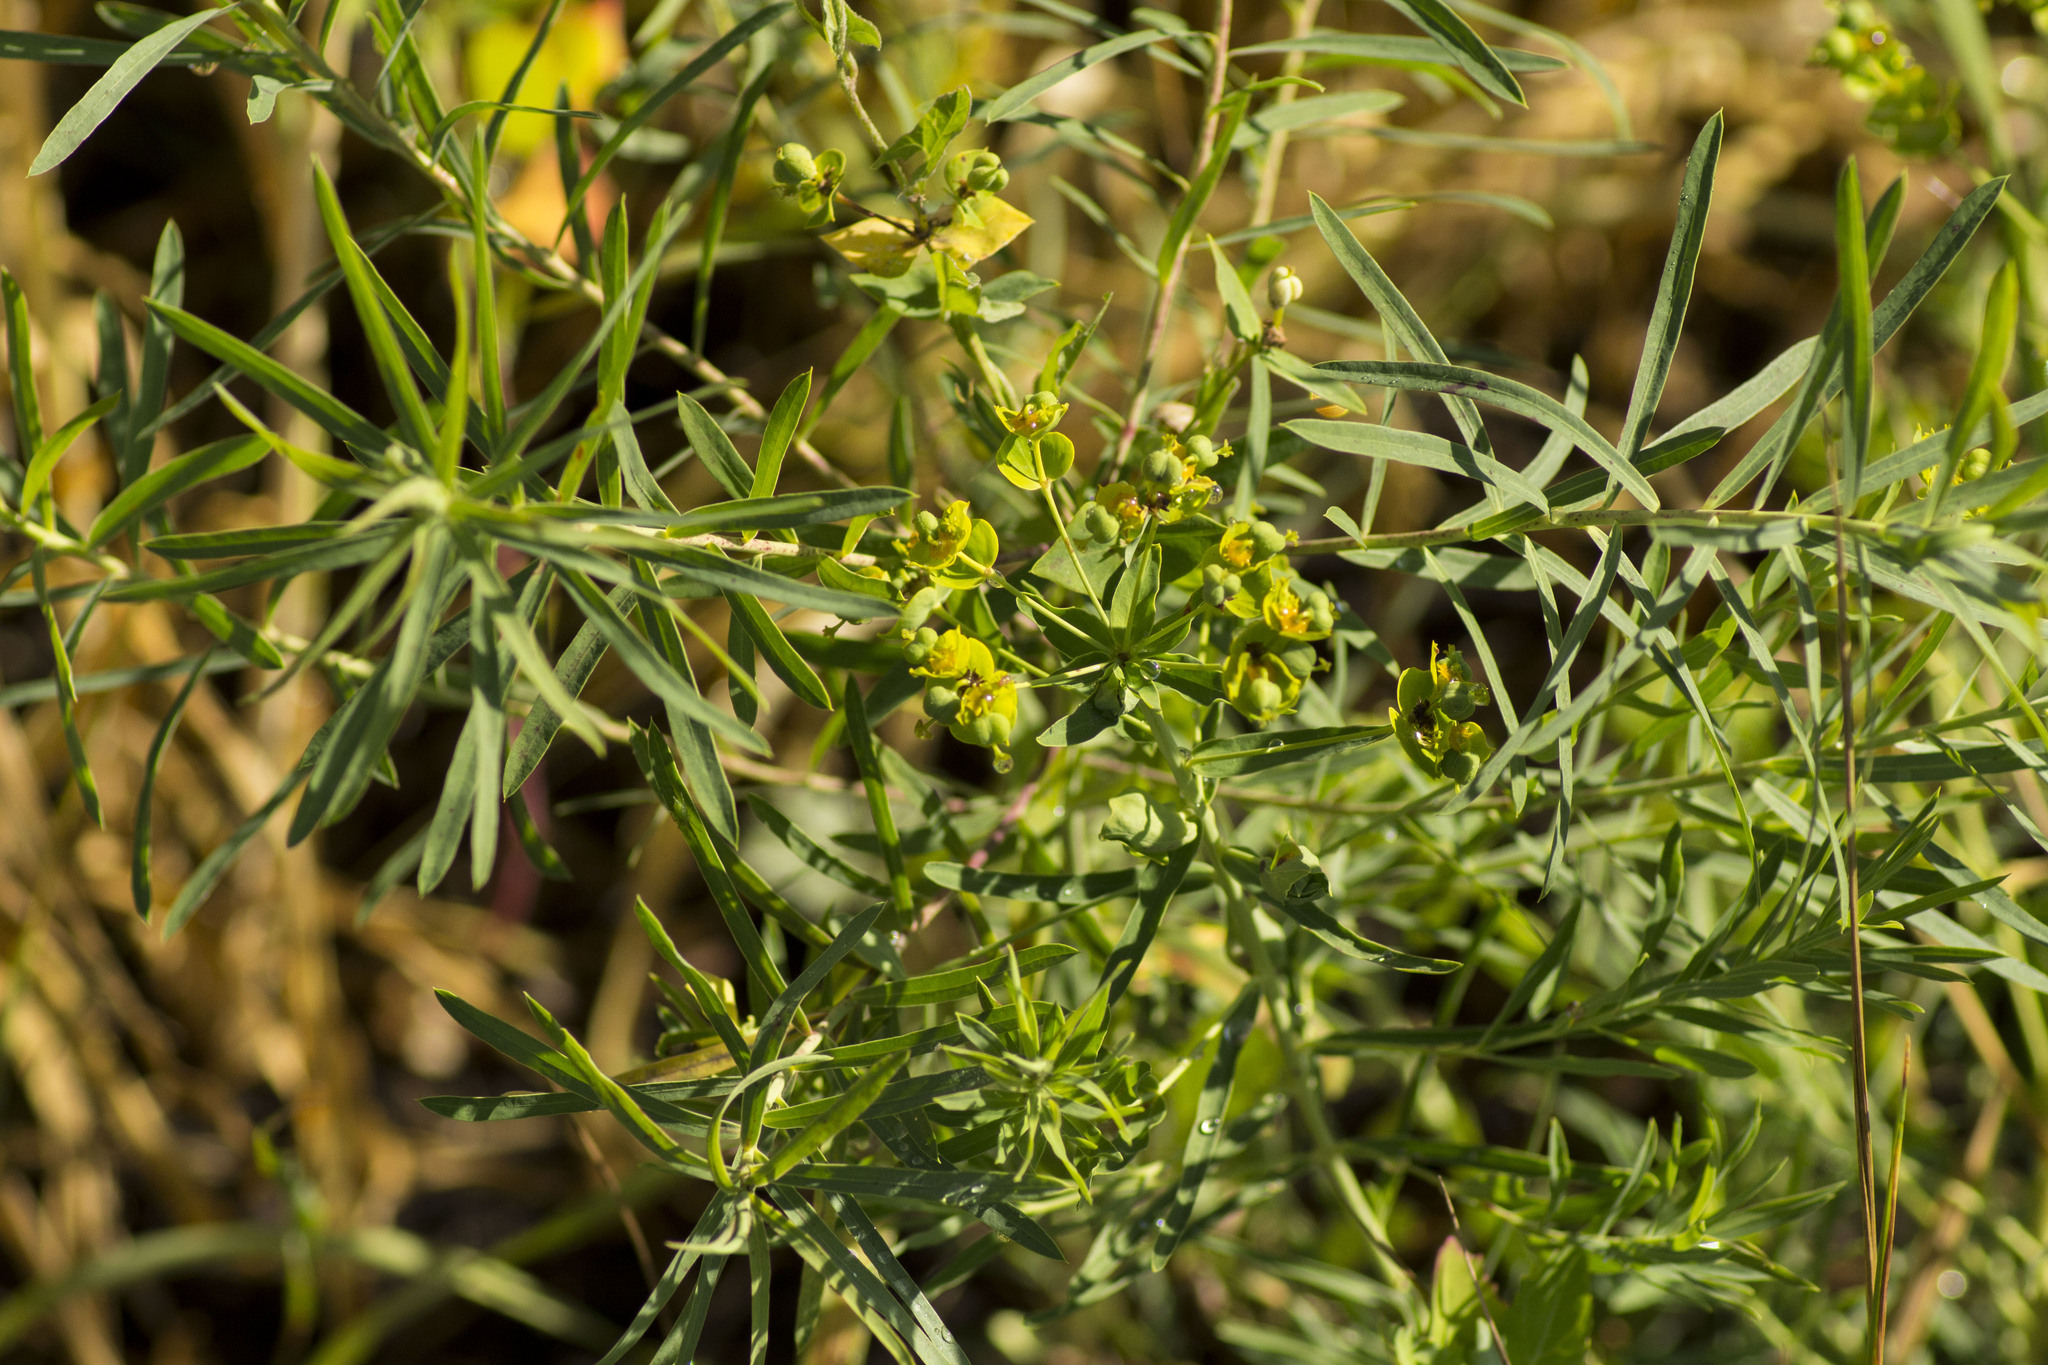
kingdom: Plantae
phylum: Tracheophyta
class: Magnoliopsida
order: Malpighiales
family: Euphorbiaceae
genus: Euphorbia
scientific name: Euphorbia virgata
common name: Leafy spurge
